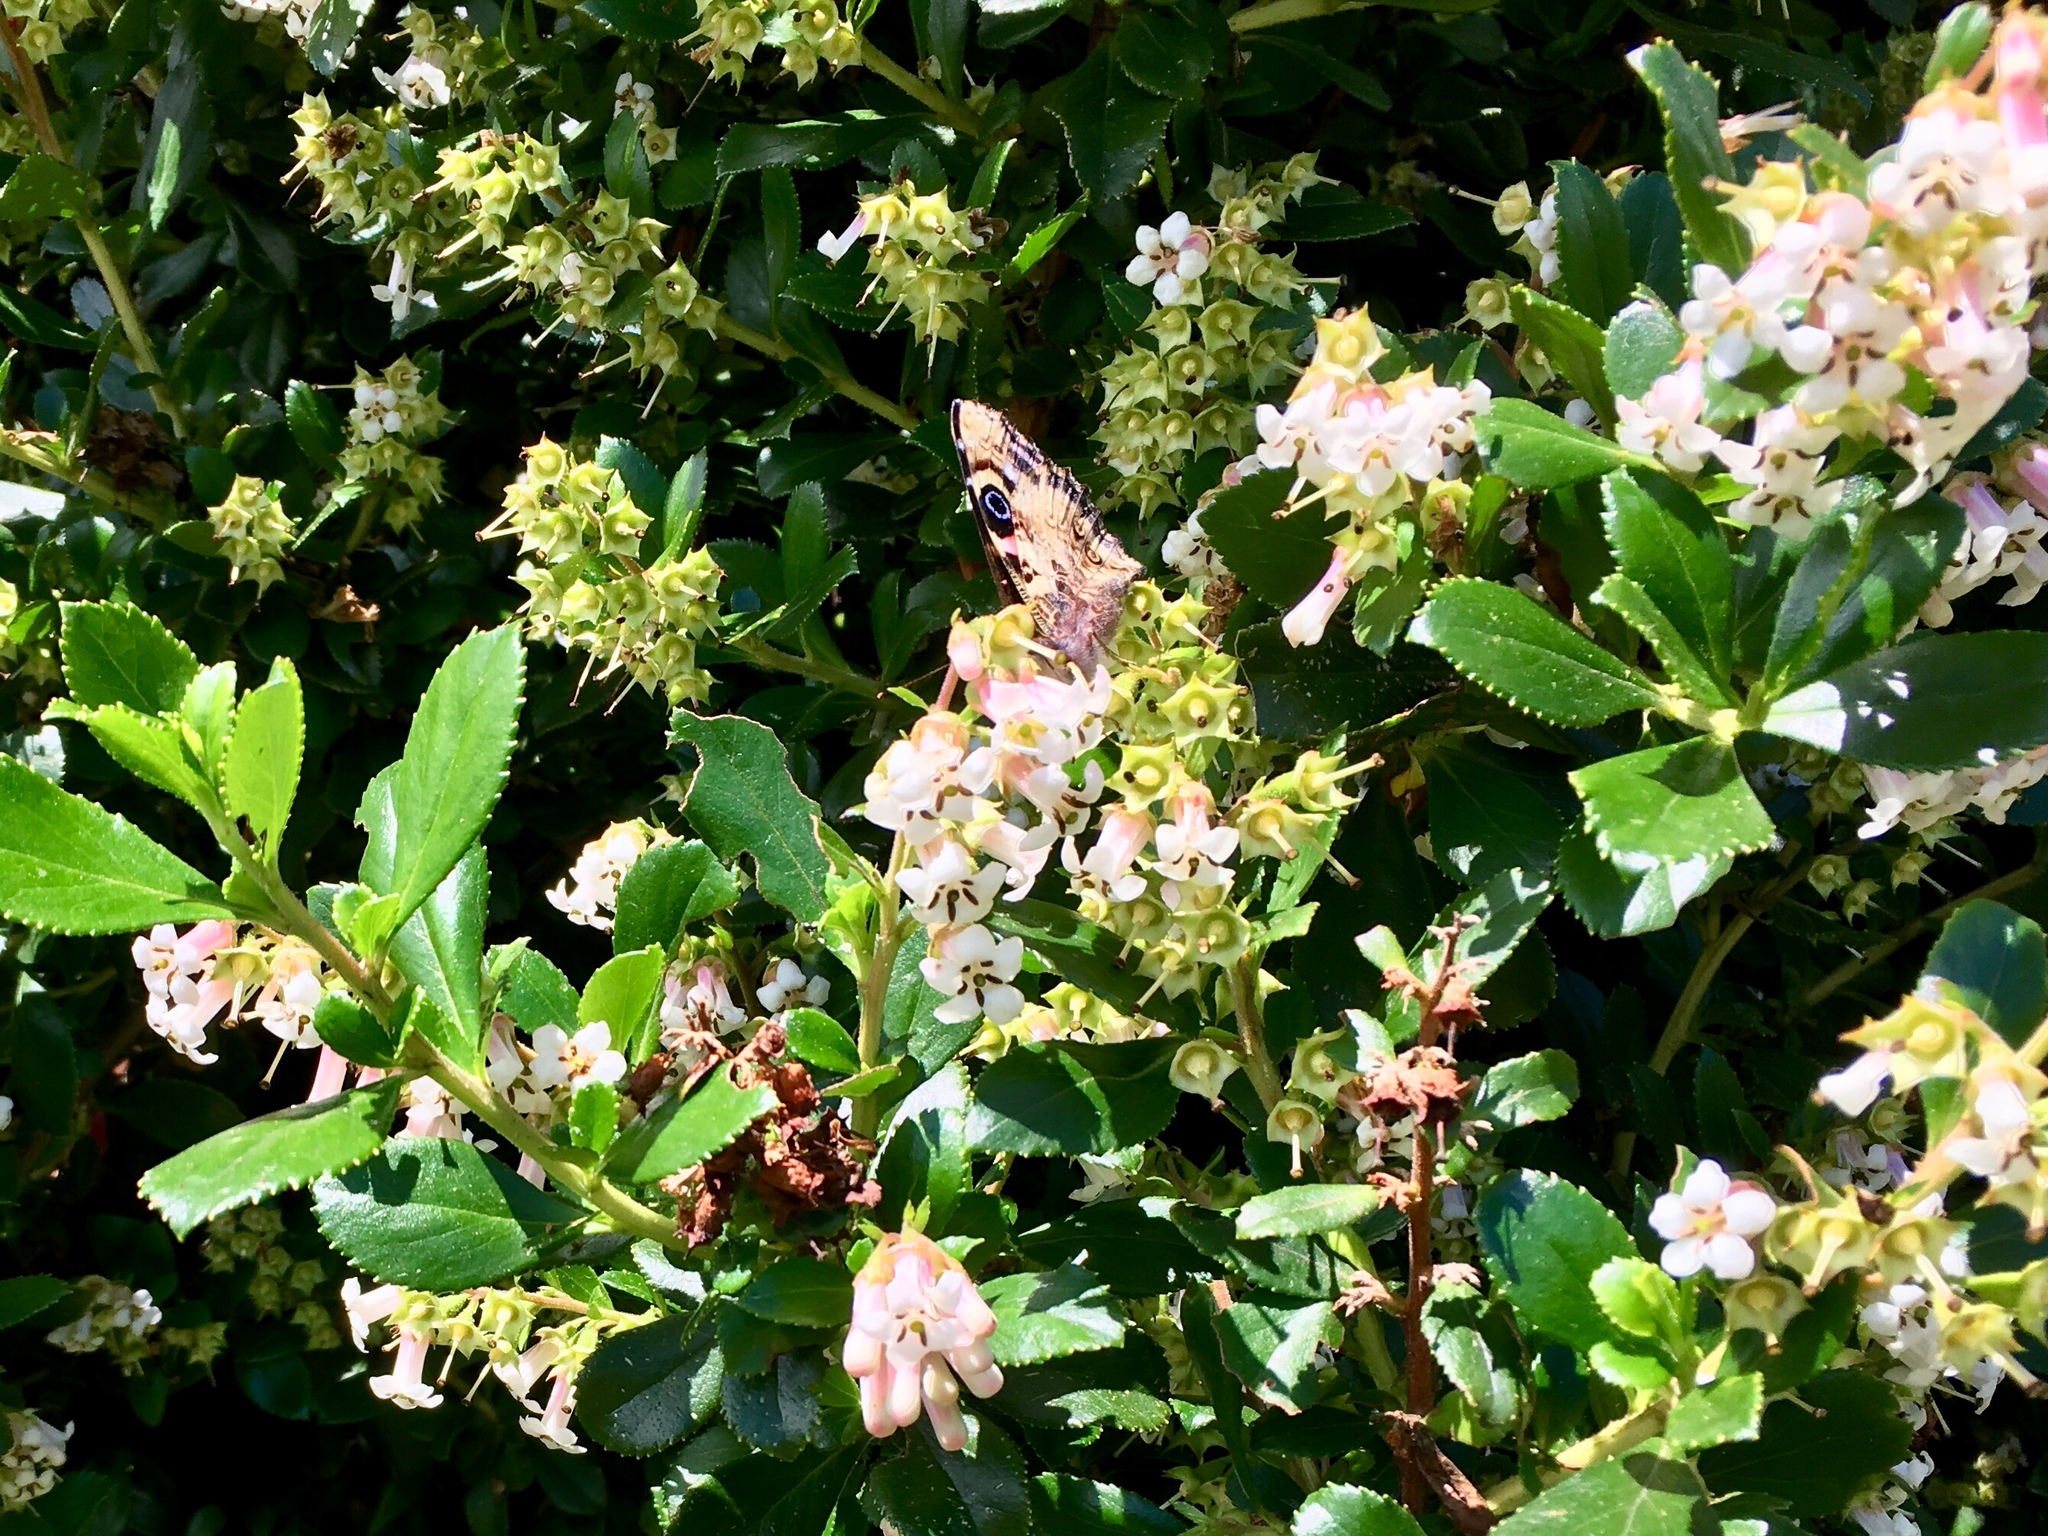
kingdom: Animalia
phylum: Arthropoda
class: Insecta
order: Lepidoptera
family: Nymphalidae
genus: Vanessa
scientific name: Vanessa gonerilla
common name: New zealand red admiral
